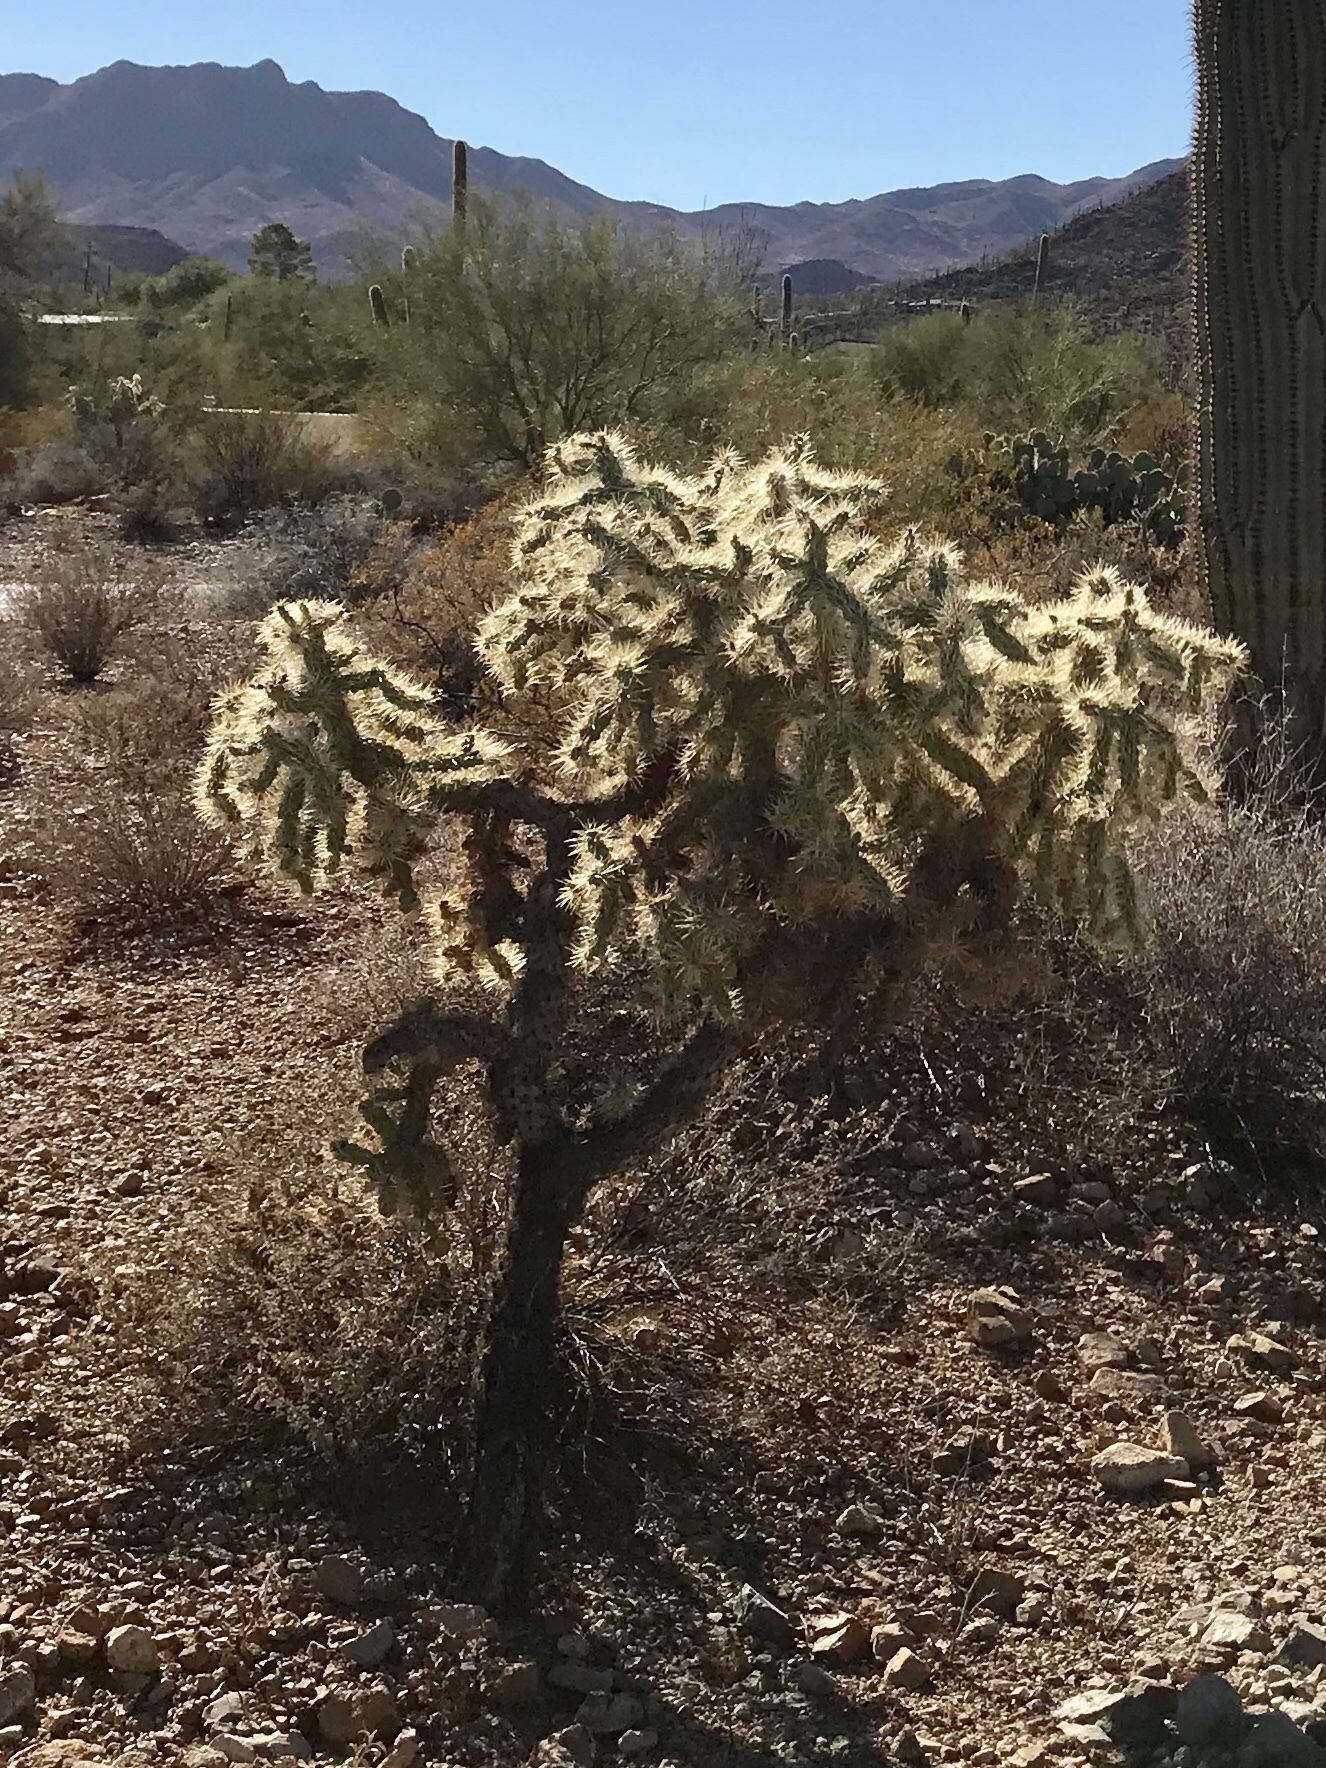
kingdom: Plantae
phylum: Tracheophyta
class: Magnoliopsida
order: Caryophyllales
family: Cactaceae
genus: Cylindropuntia
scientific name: Cylindropuntia fulgida
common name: Jumping cholla
